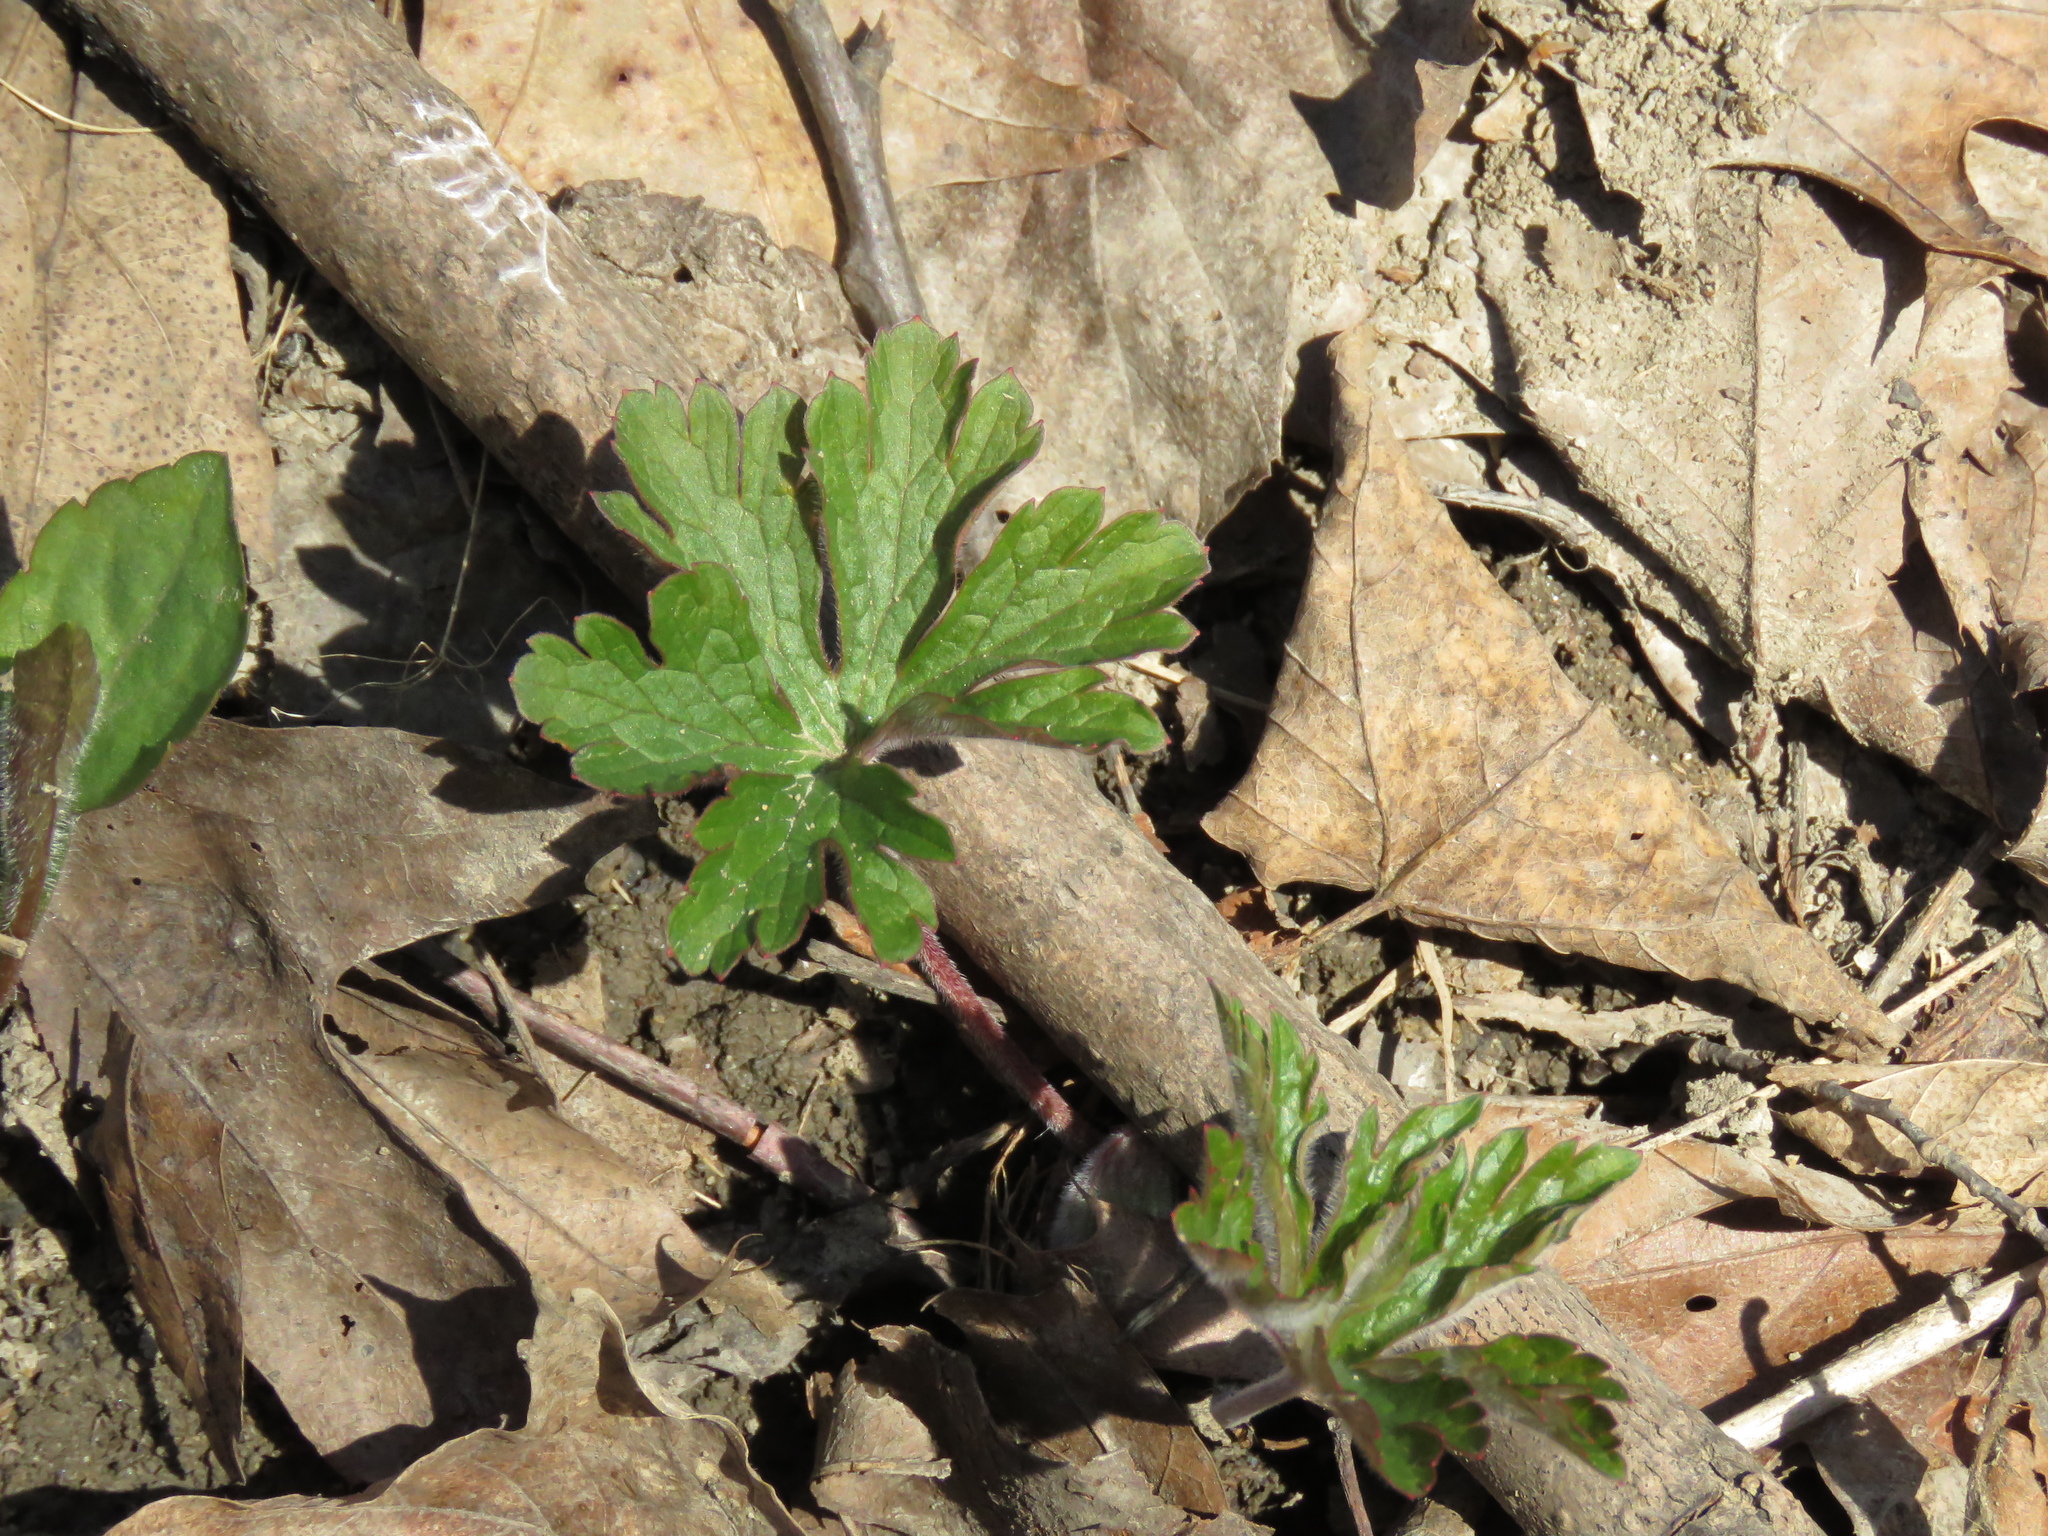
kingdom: Plantae
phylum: Tracheophyta
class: Magnoliopsida
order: Geraniales
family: Geraniaceae
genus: Geranium
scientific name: Geranium maculatum
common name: Spotted geranium
